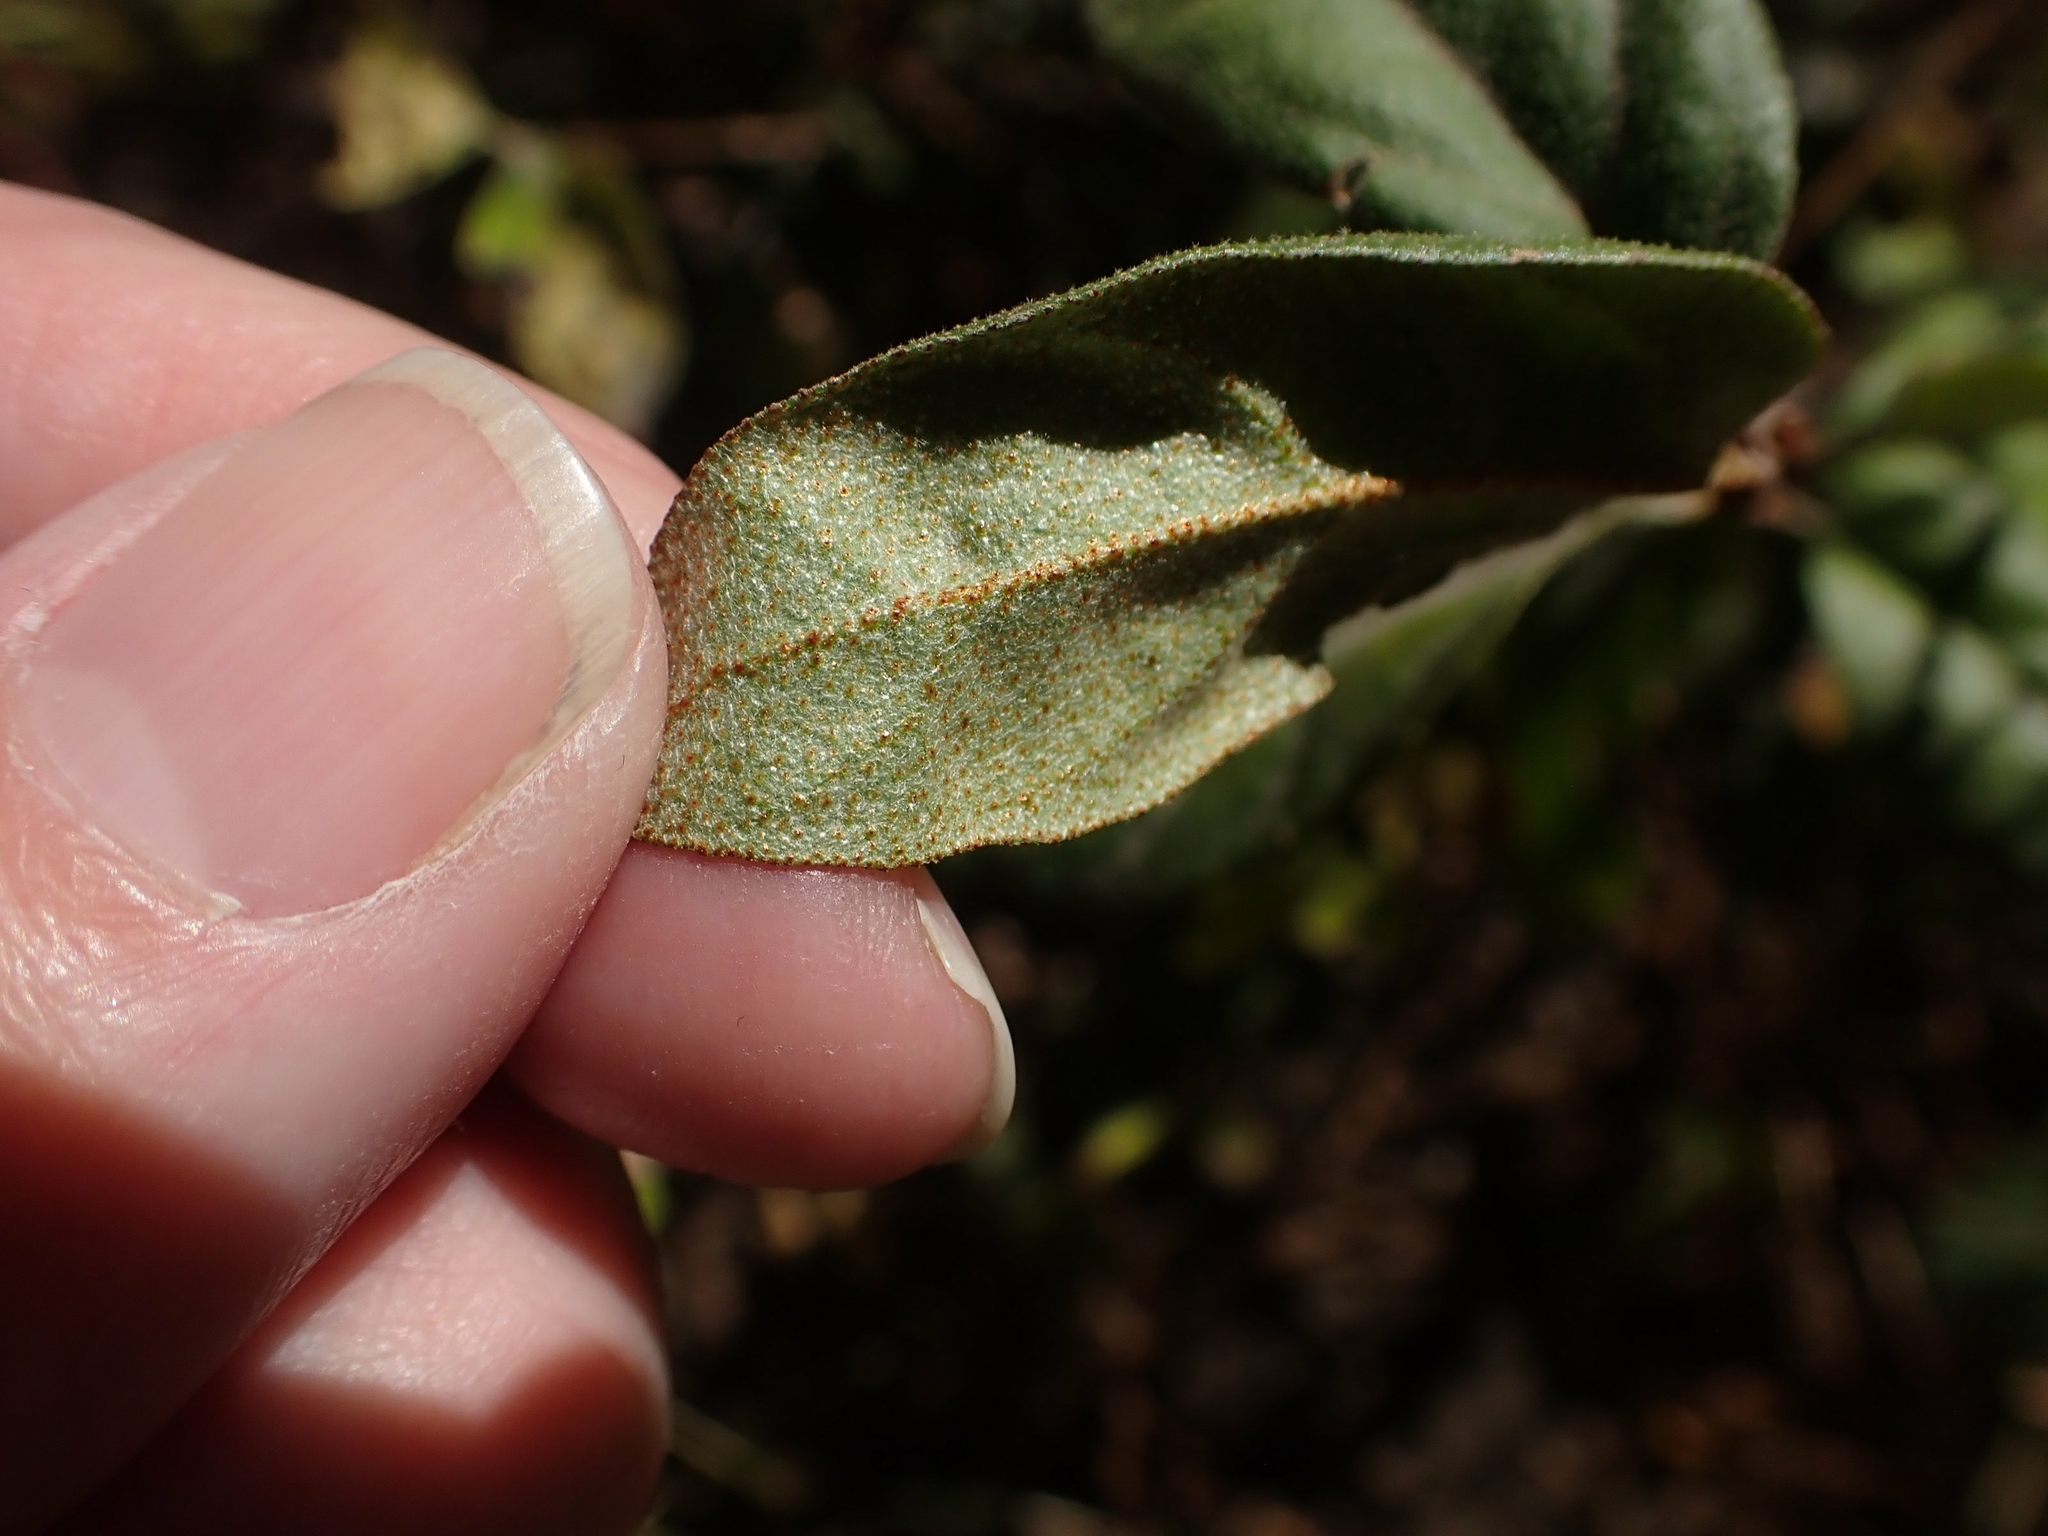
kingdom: Plantae
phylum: Tracheophyta
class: Magnoliopsida
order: Rosales
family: Elaeagnaceae
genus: Shepherdia
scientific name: Shepherdia canadensis
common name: Soapberry
